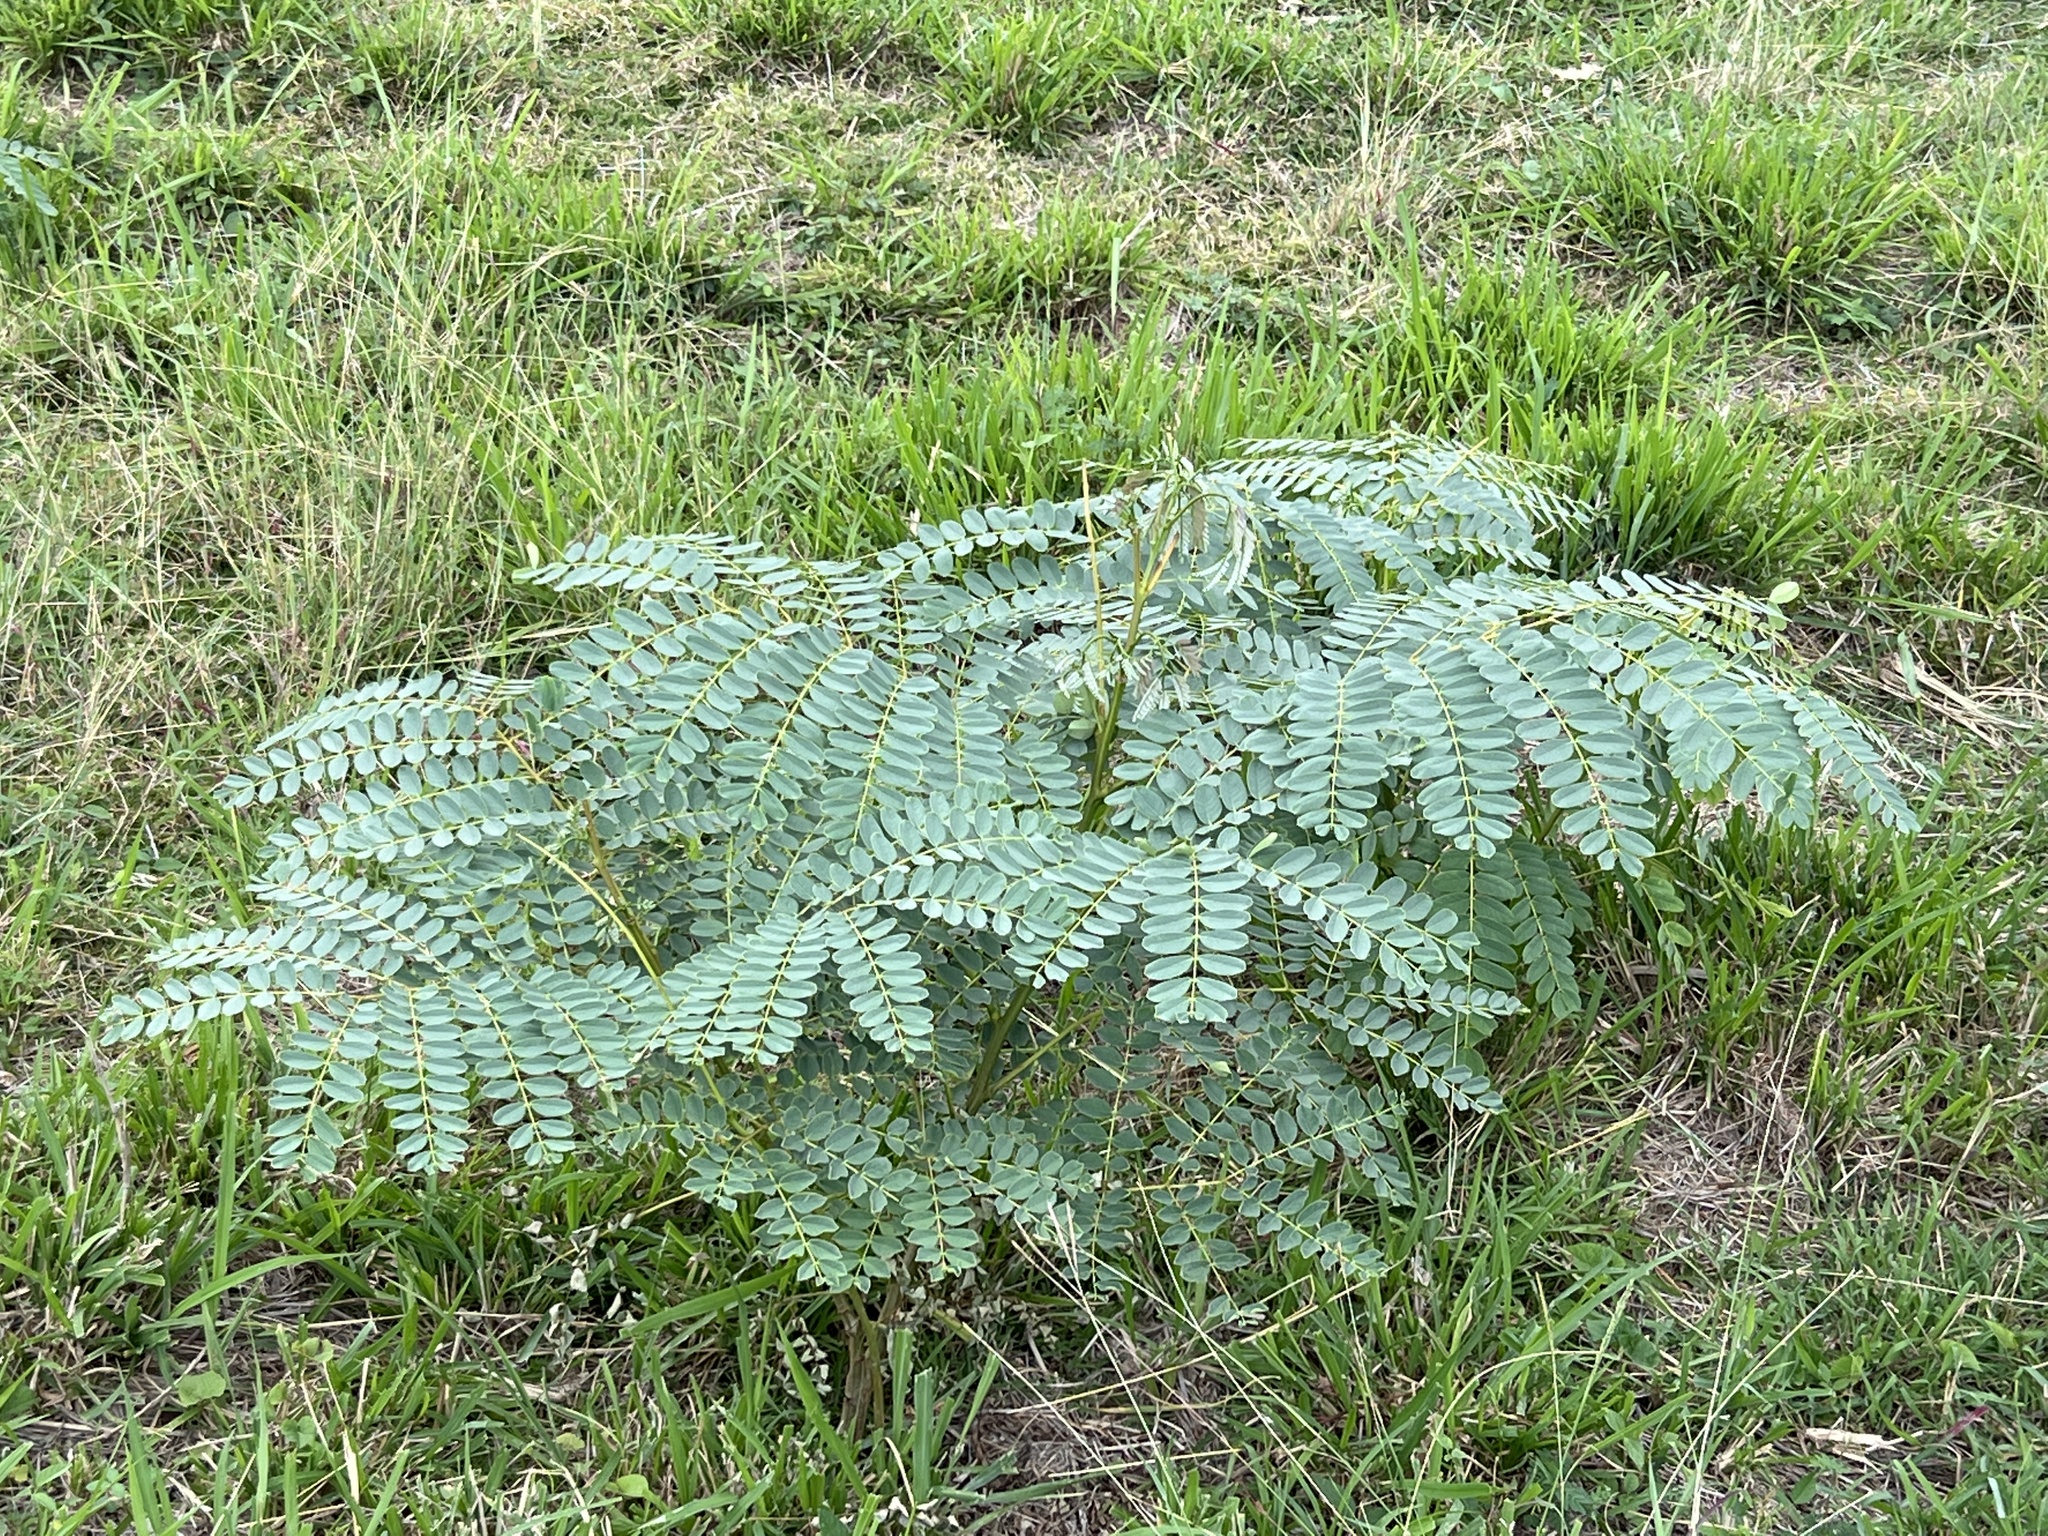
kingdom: Plantae
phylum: Tracheophyta
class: Magnoliopsida
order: Fabales
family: Fabaceae
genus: Samanea
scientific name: Samanea saman
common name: Raintree
